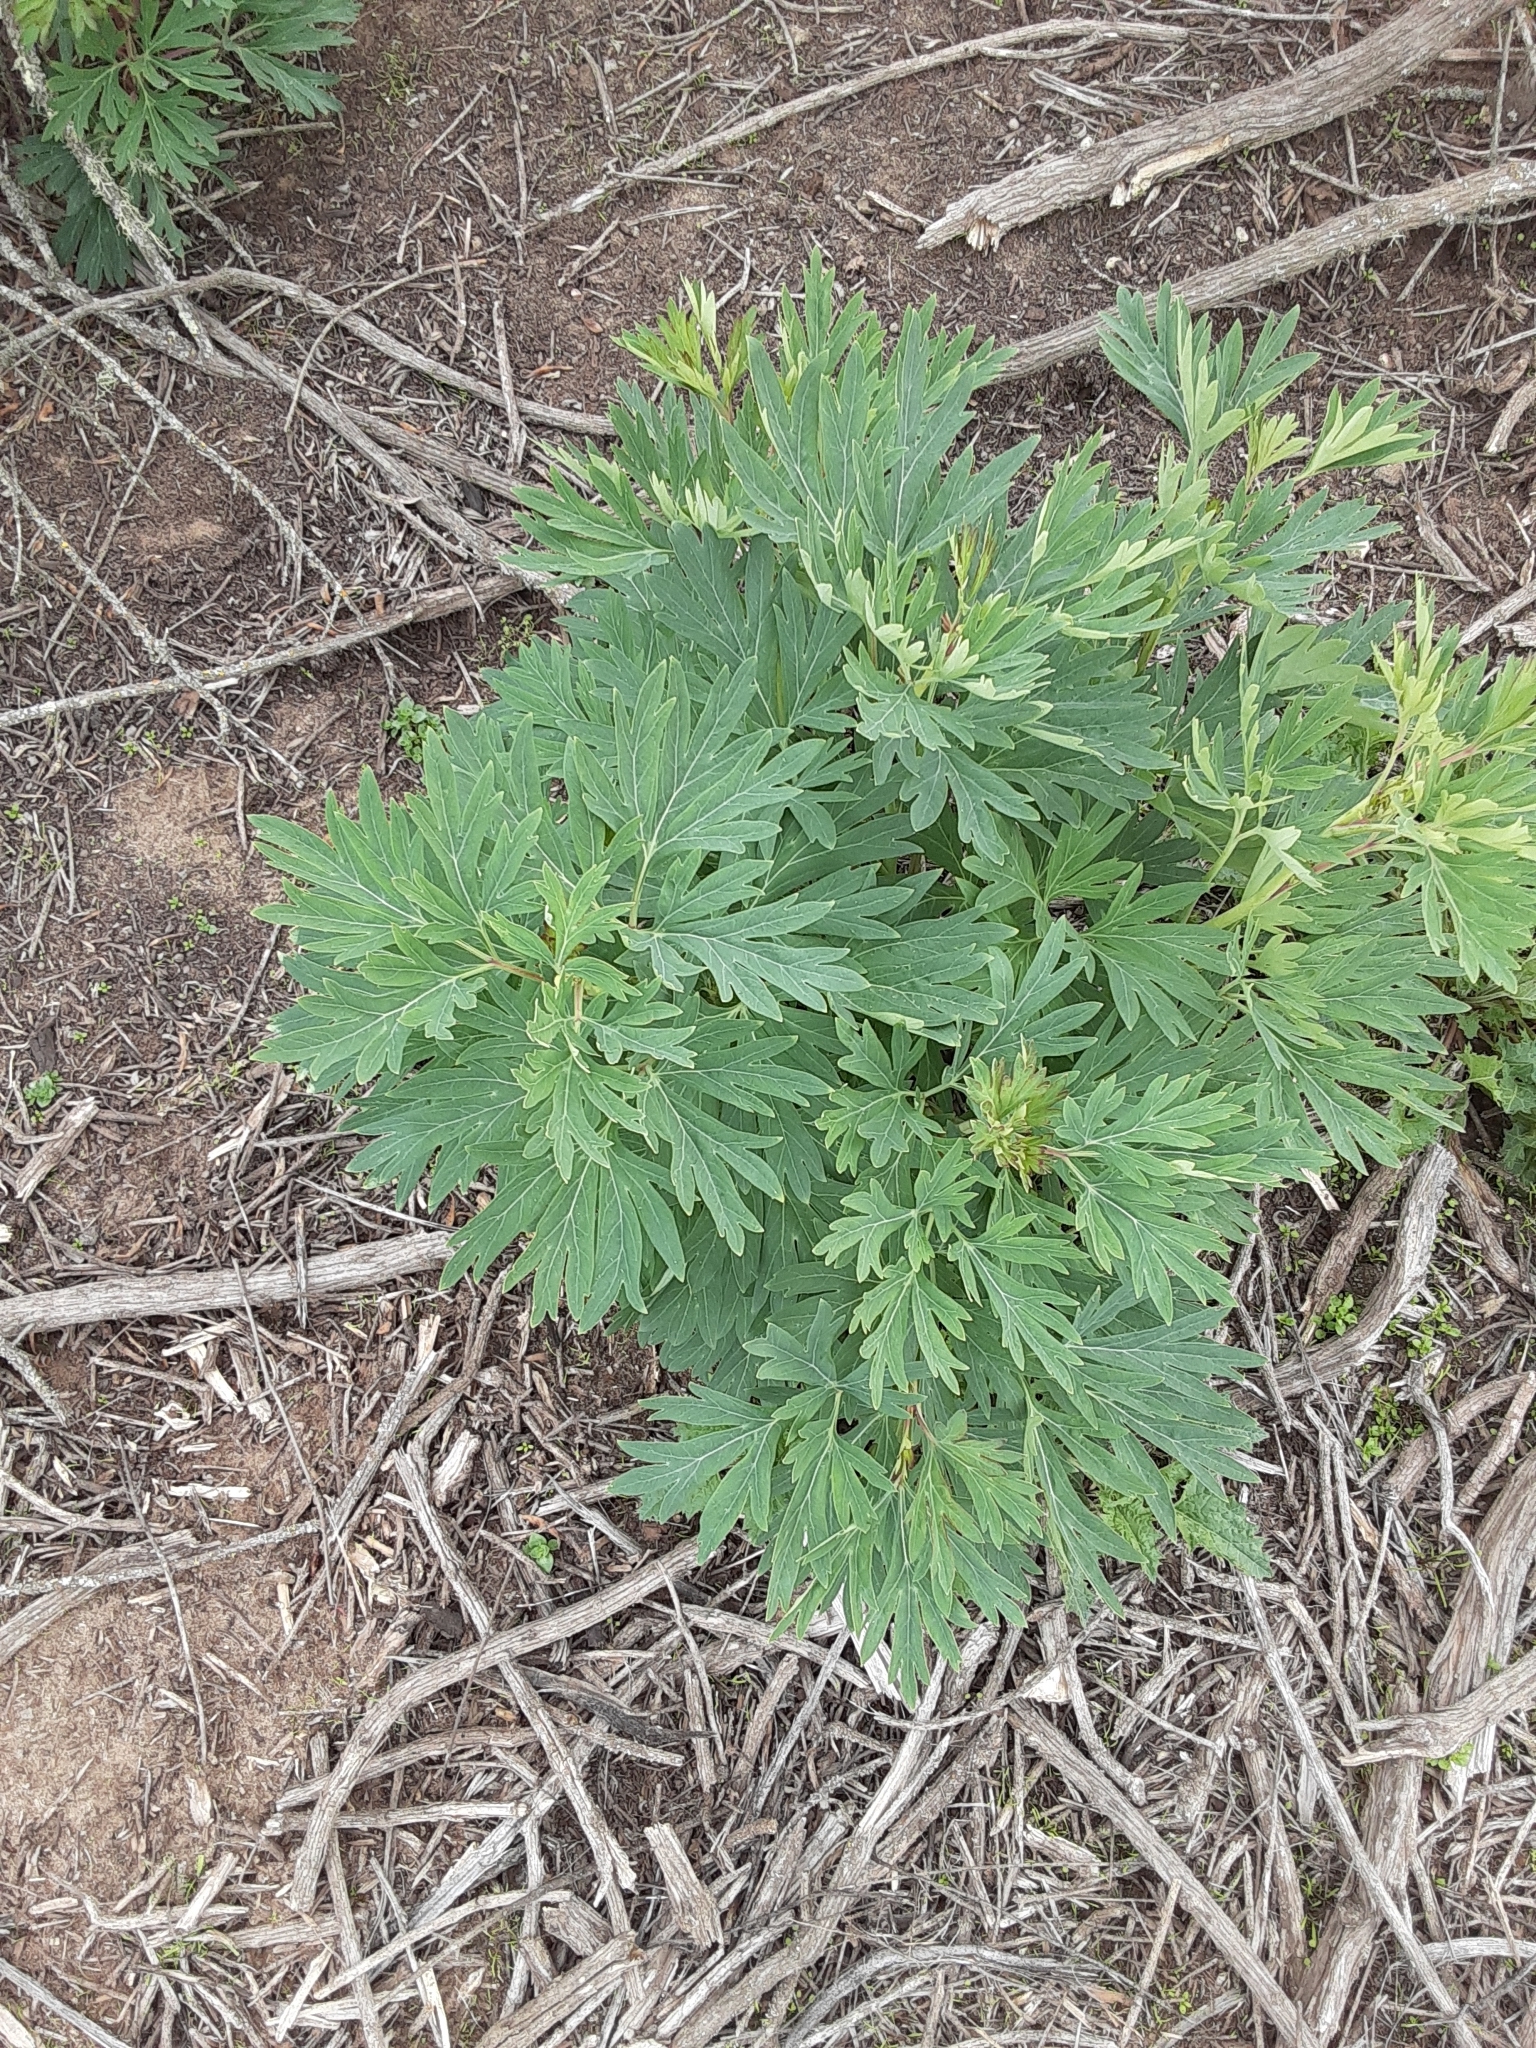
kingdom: Plantae
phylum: Tracheophyta
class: Magnoliopsida
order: Saxifragales
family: Paeoniaceae
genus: Paeonia
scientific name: Paeonia californica
